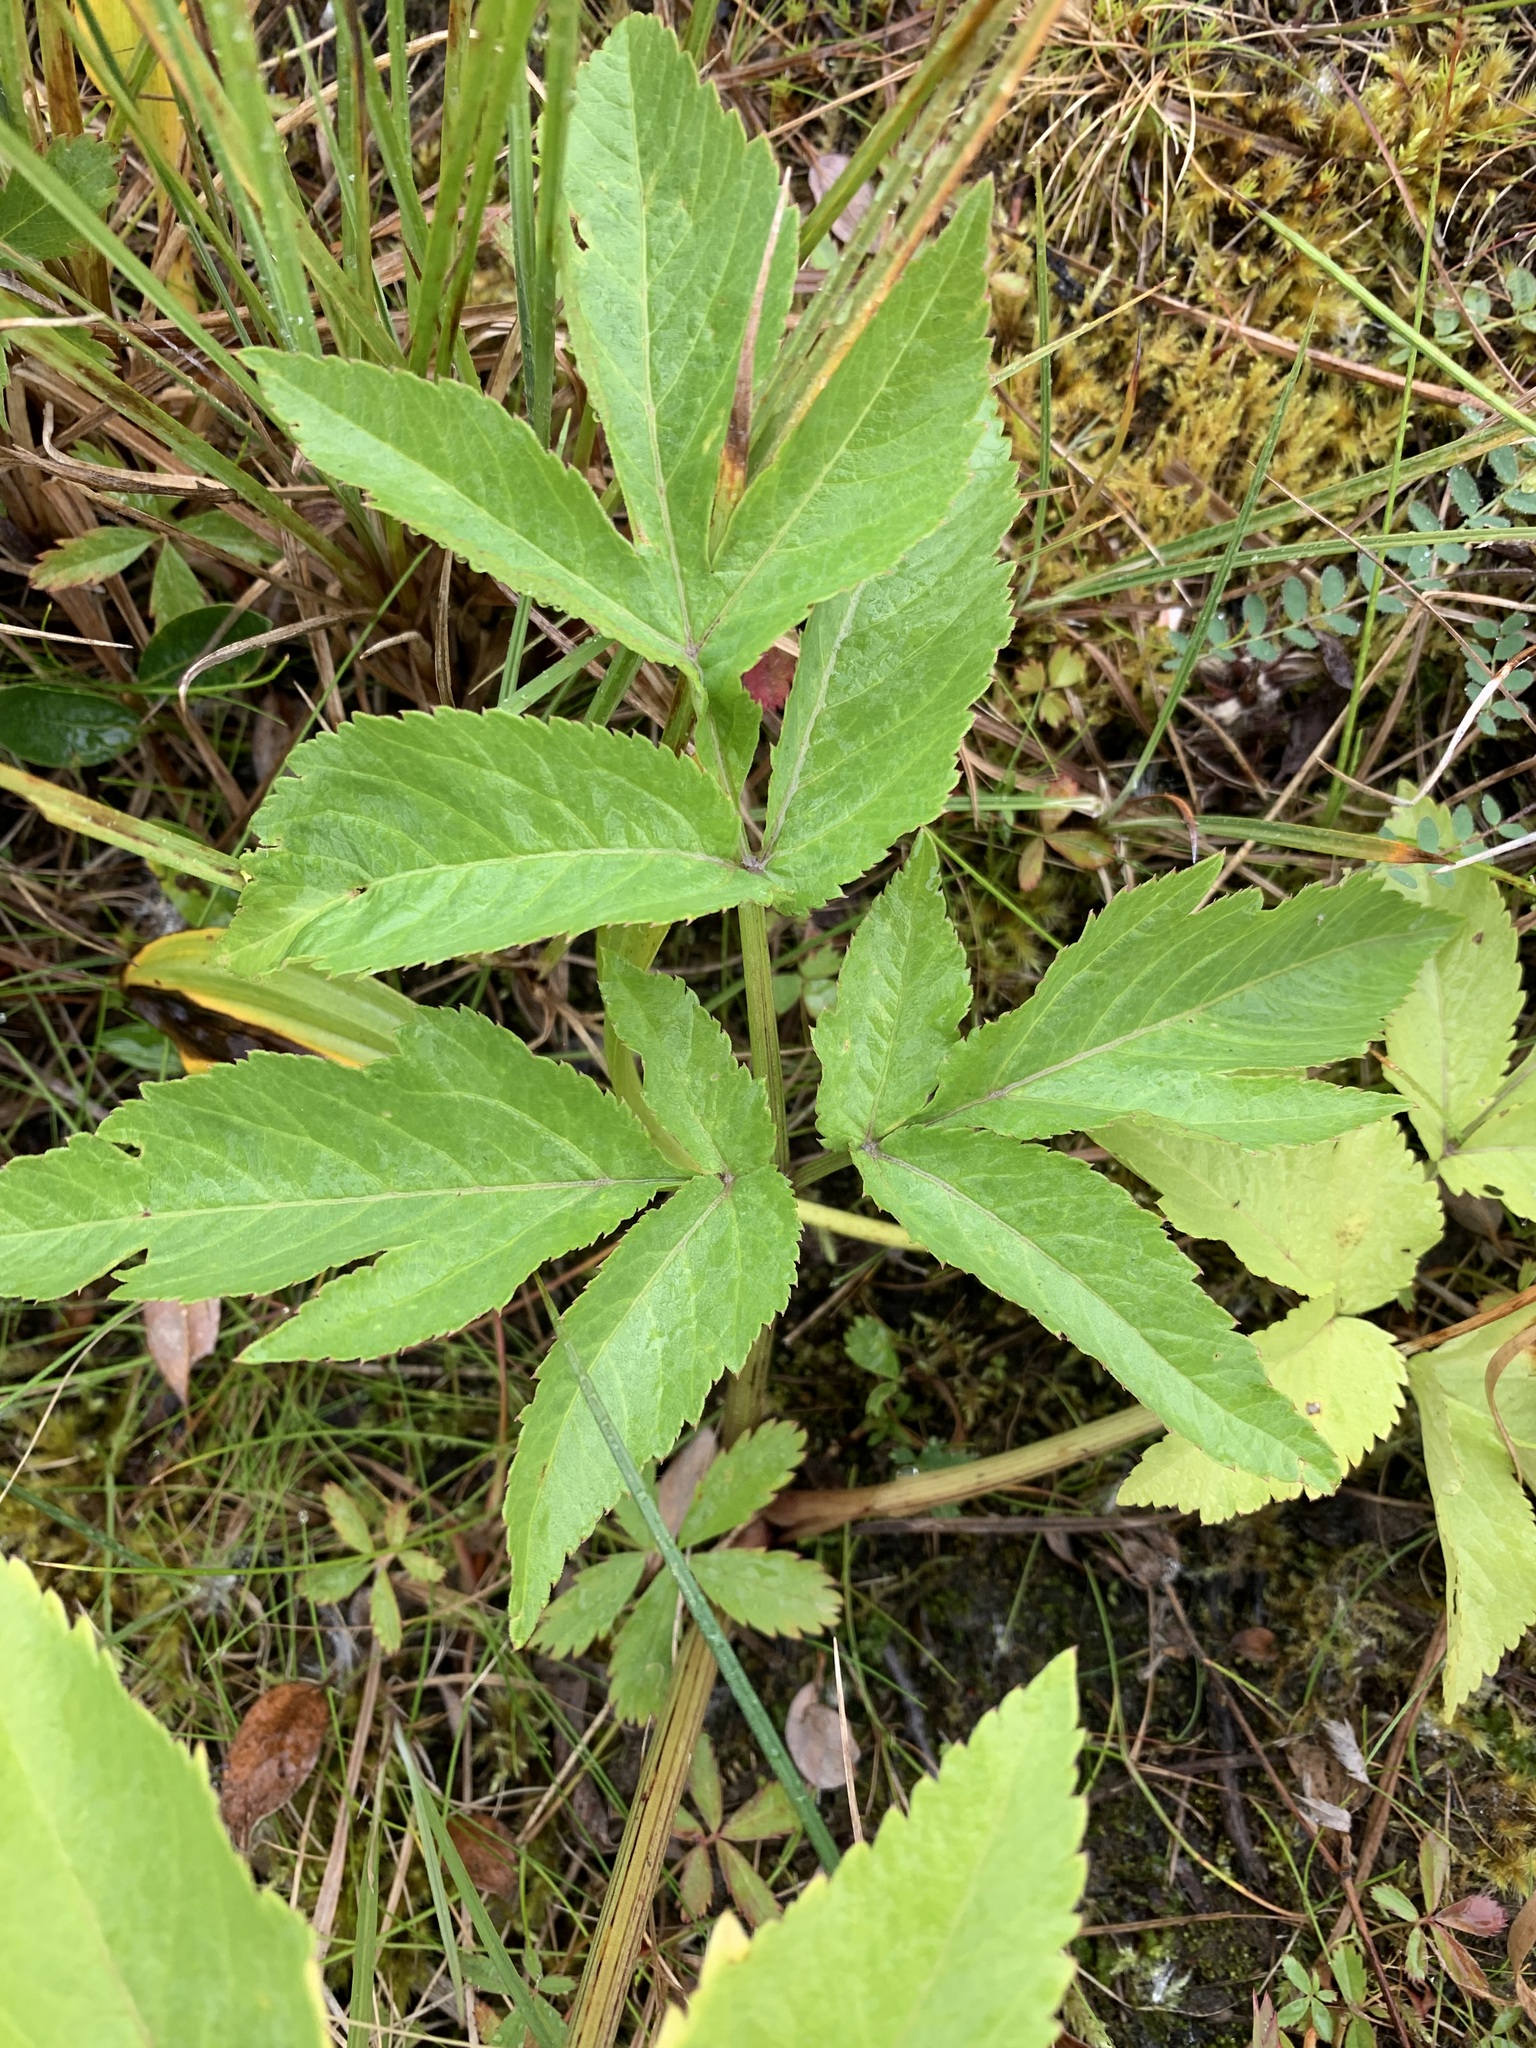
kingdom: Plantae
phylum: Tracheophyta
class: Magnoliopsida
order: Apiales
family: Apiaceae
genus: Angelica
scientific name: Angelica decurrens
